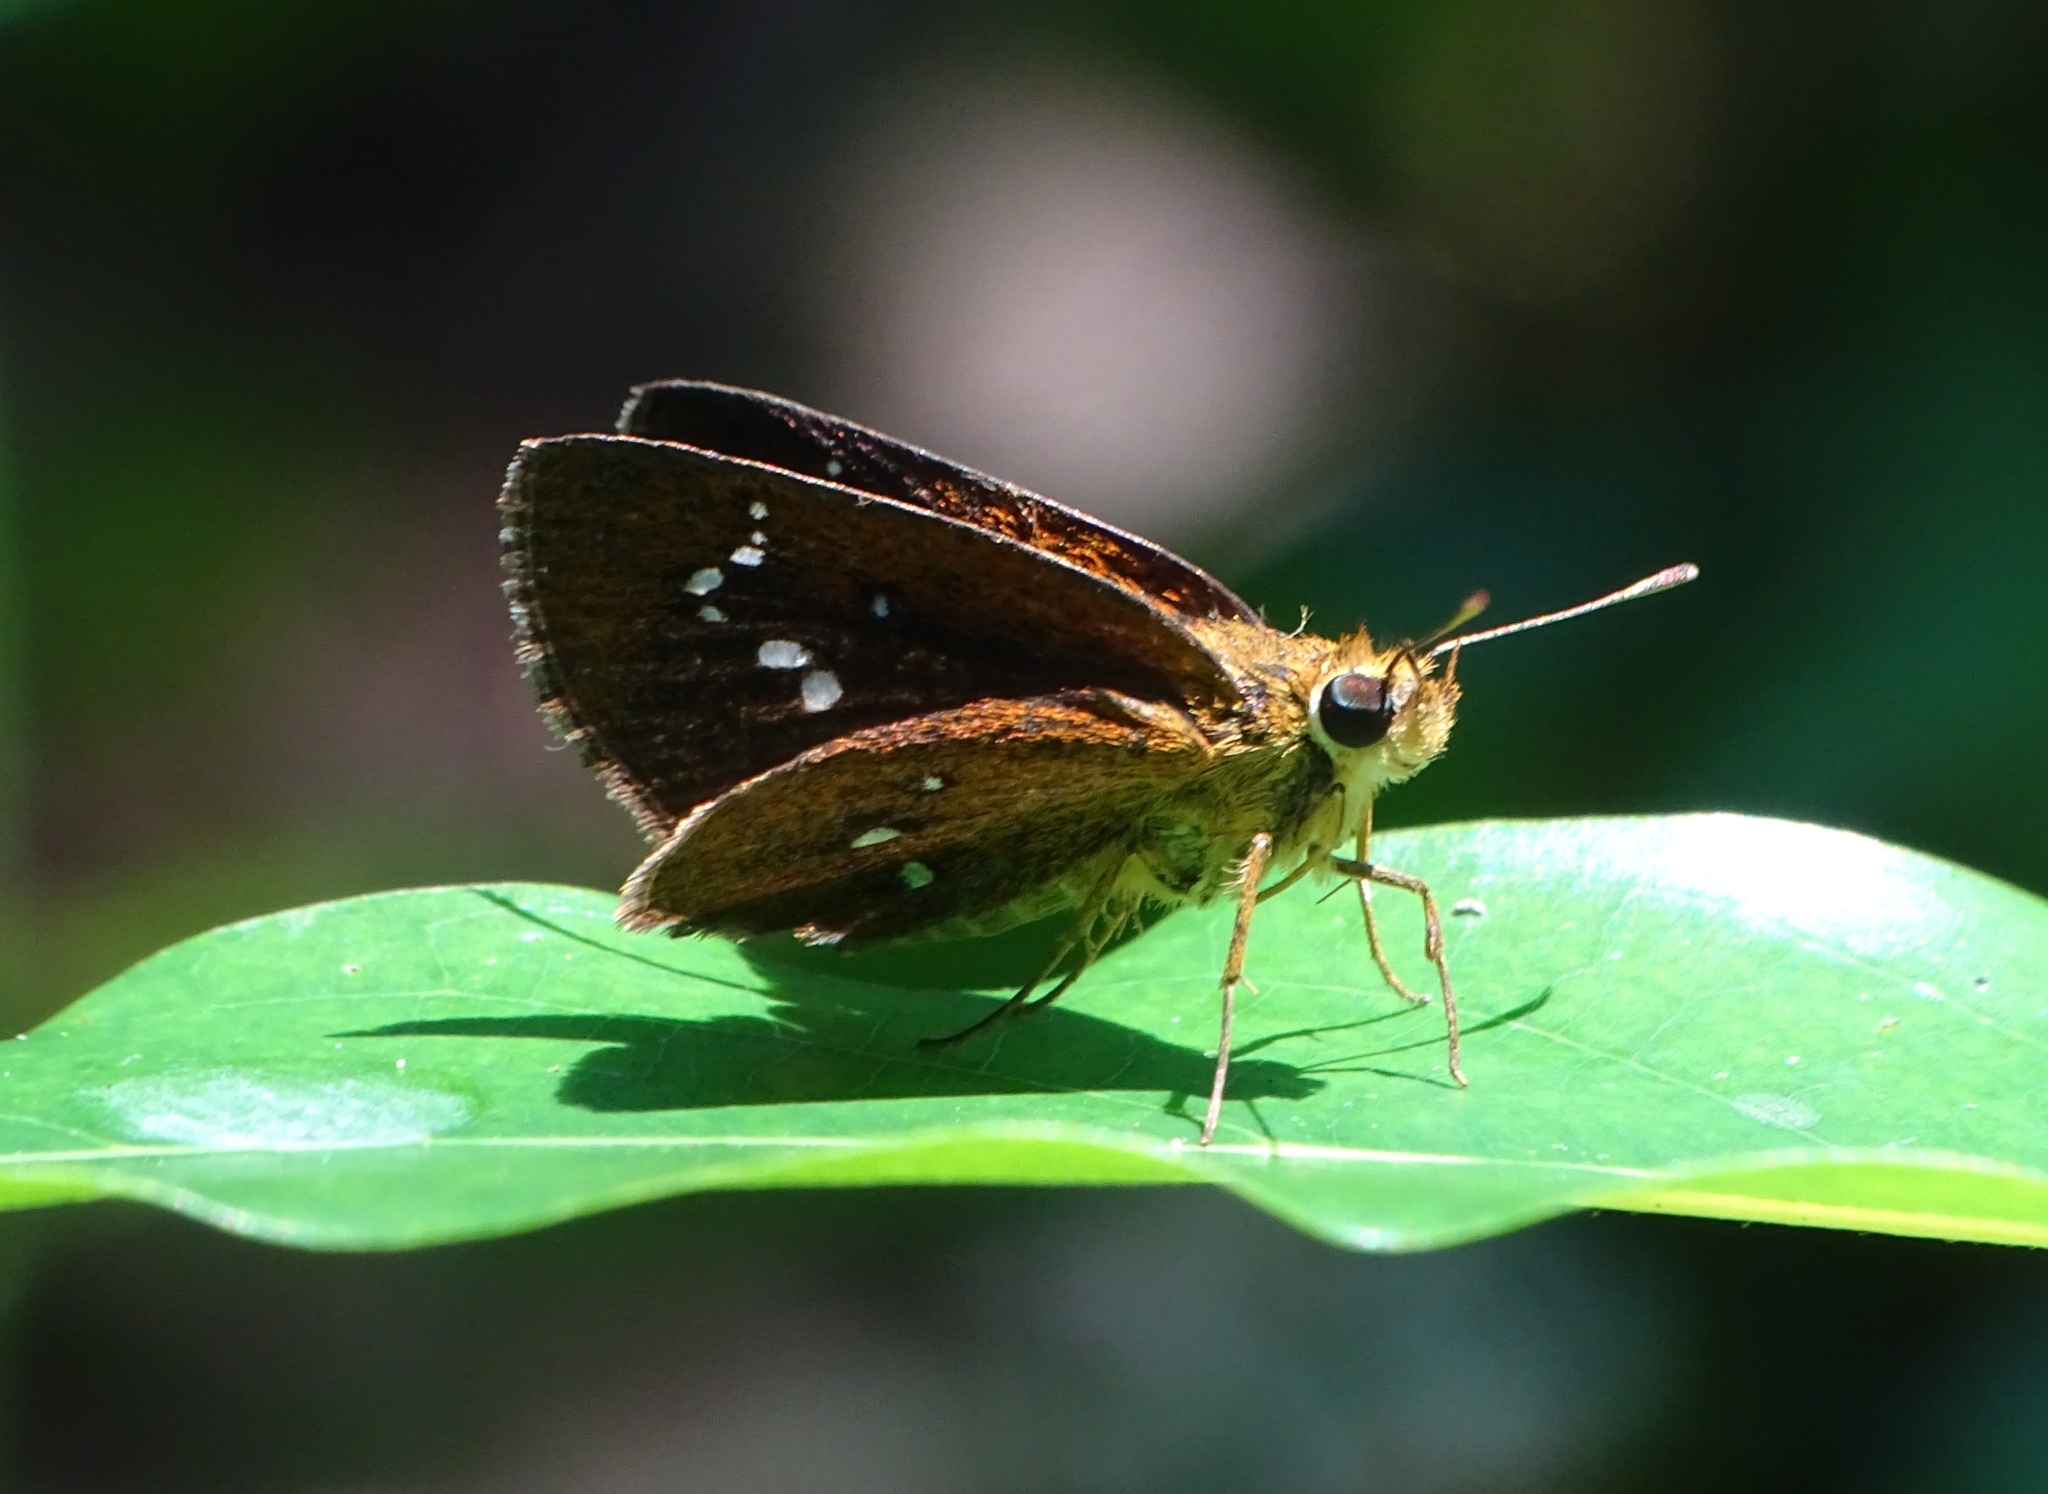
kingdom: Animalia
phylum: Arthropoda
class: Insecta
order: Lepidoptera
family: Hesperiidae
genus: Iambrix
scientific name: Iambrix salsala
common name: Chestnut bob
